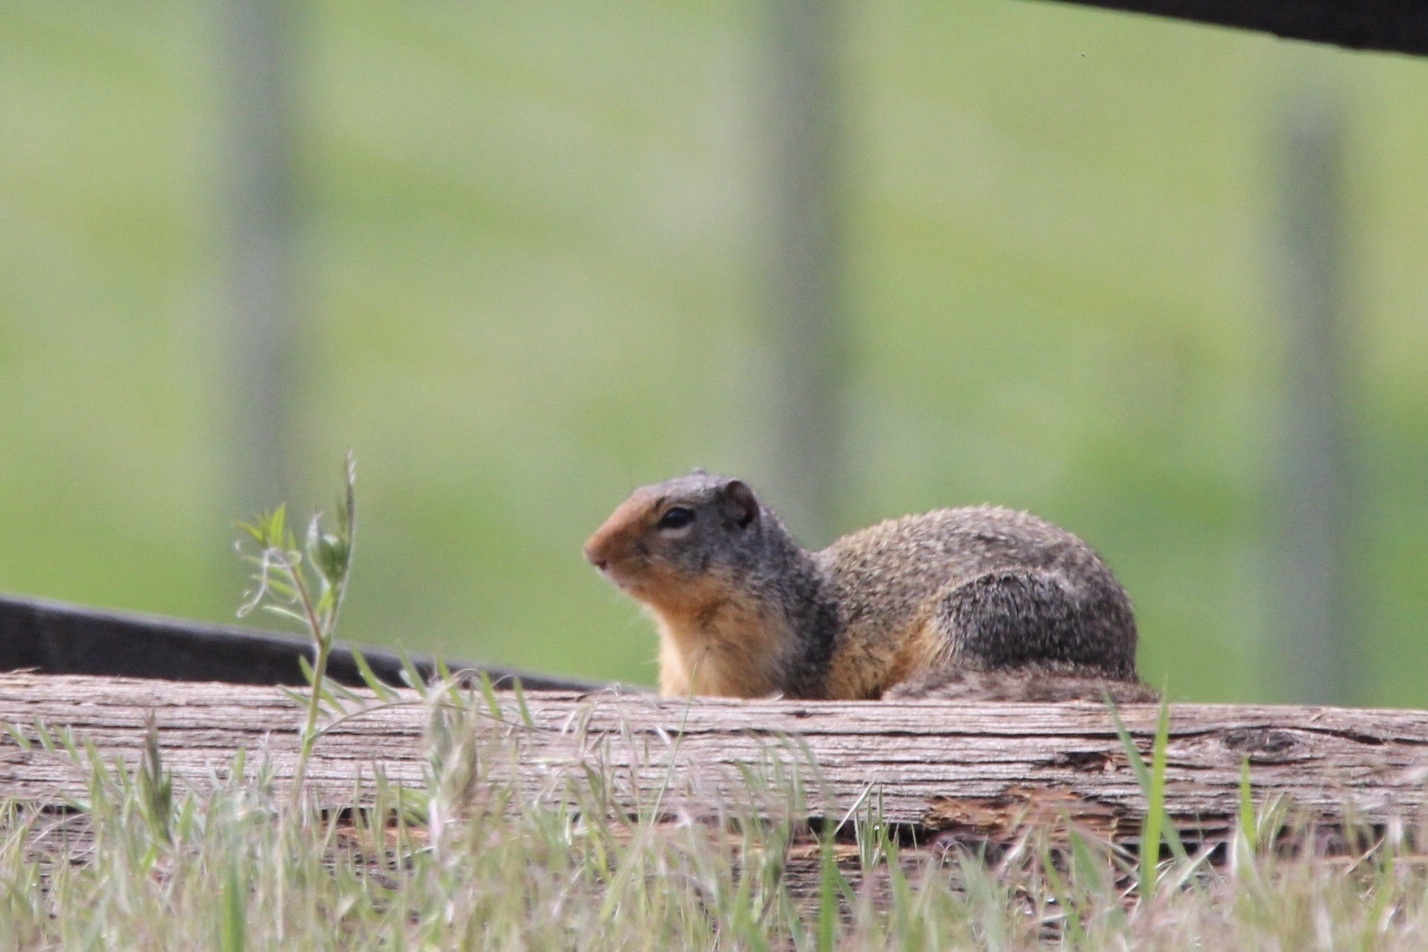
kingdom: Animalia
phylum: Chordata
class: Mammalia
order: Rodentia
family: Sciuridae
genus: Urocitellus
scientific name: Urocitellus columbianus
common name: Columbian ground squirrel
